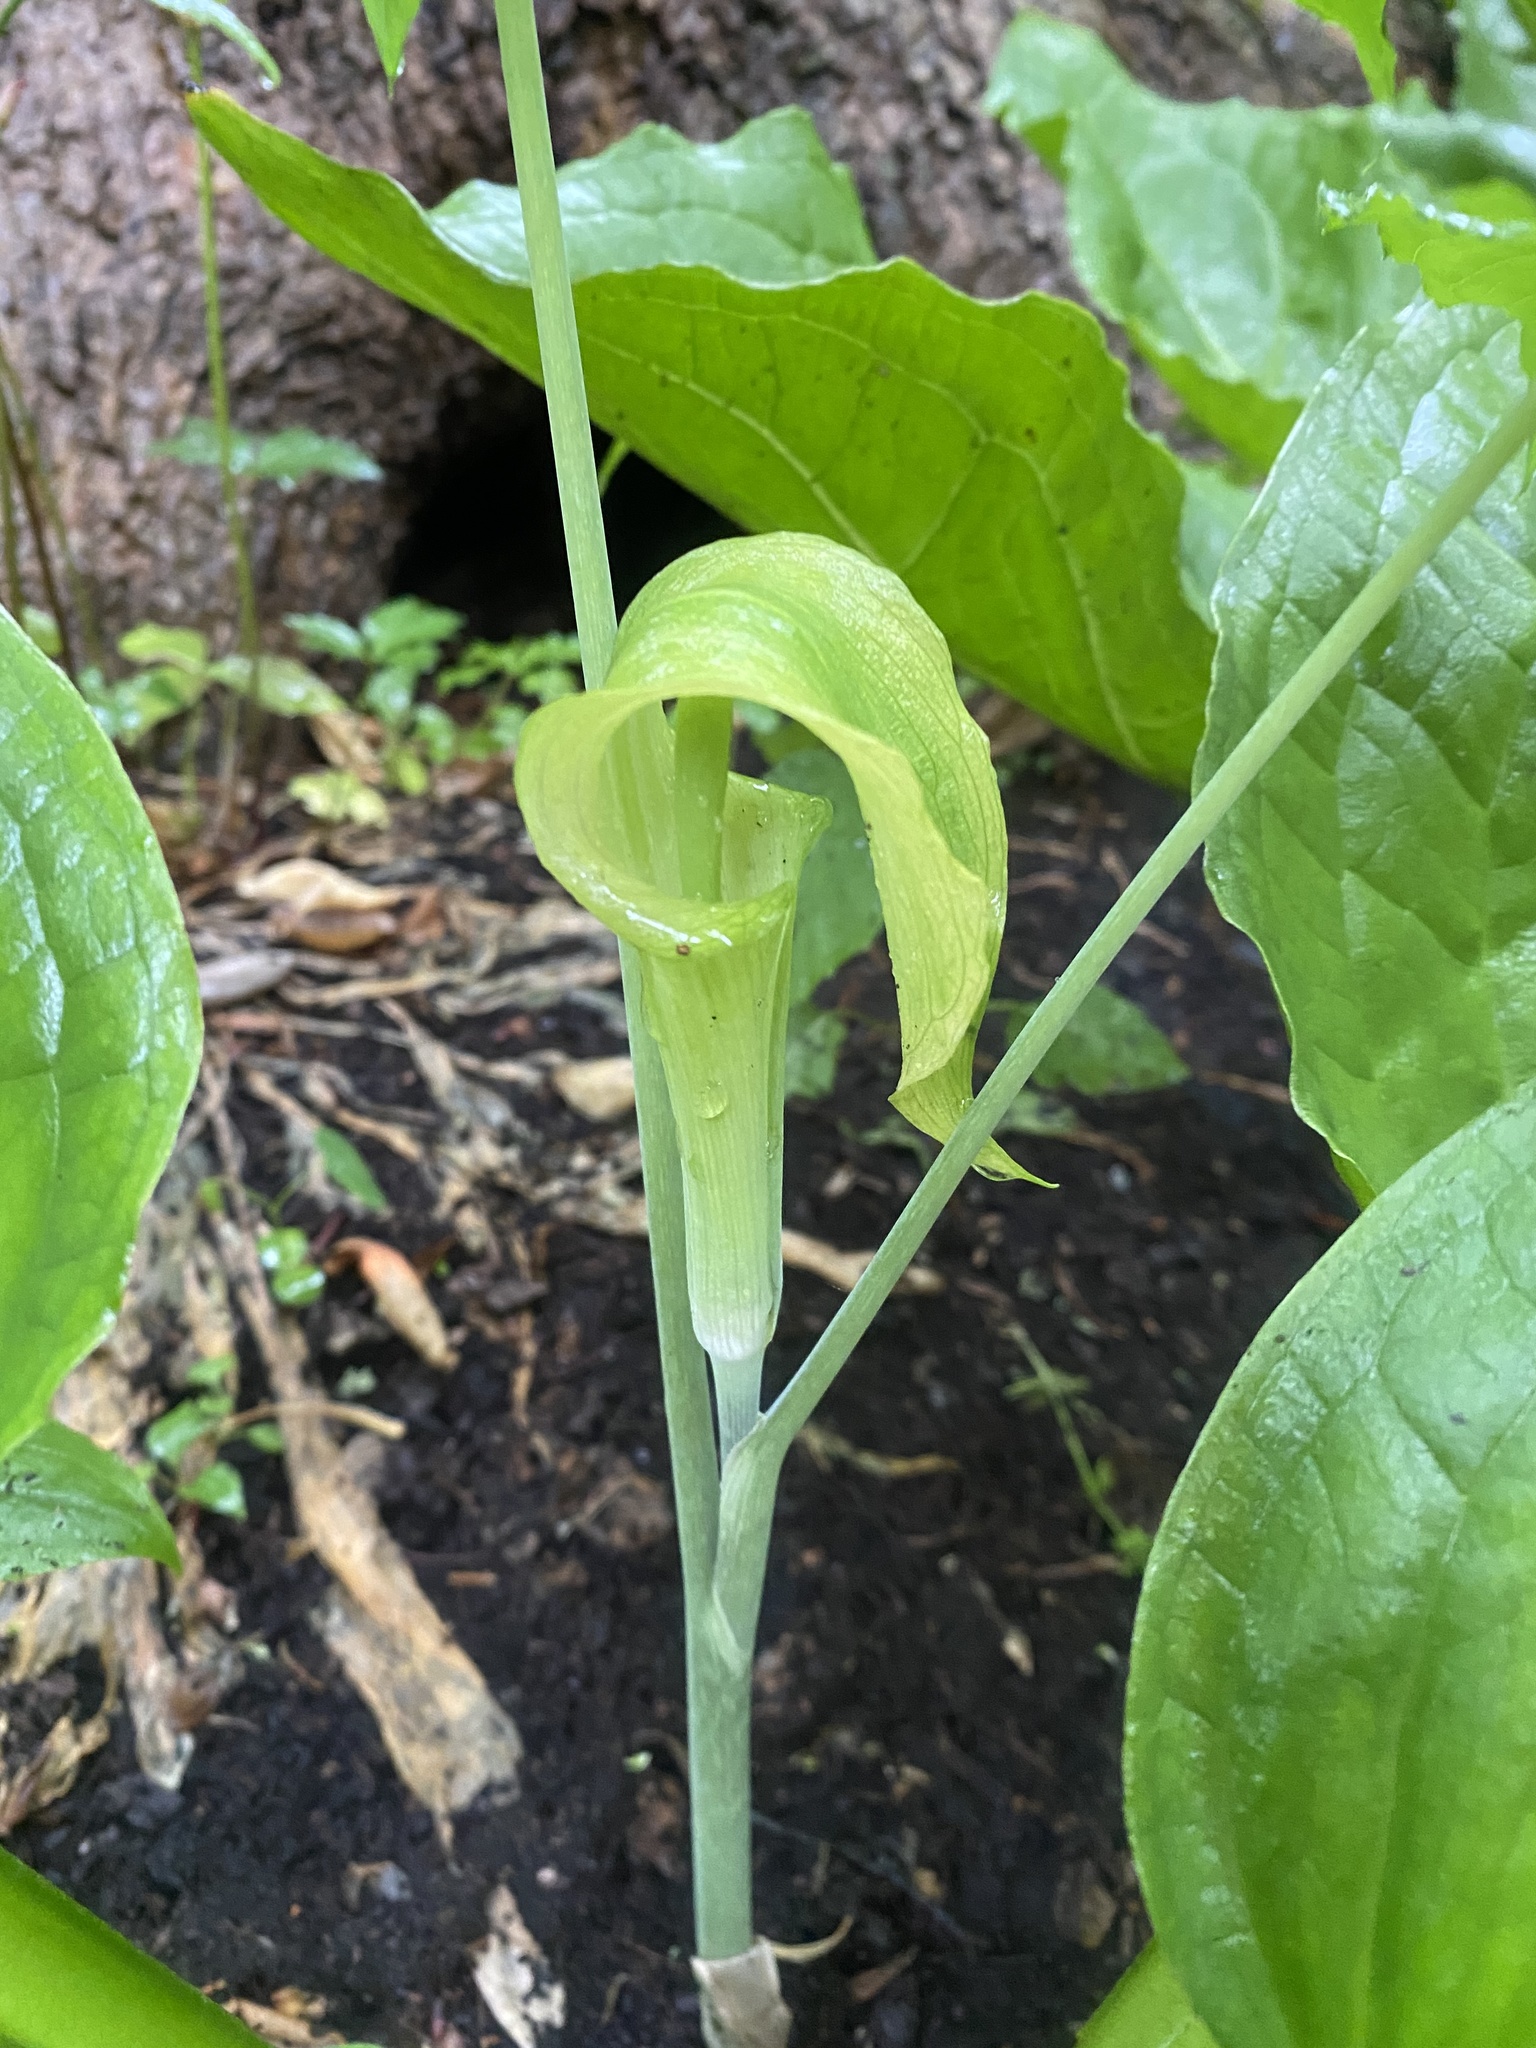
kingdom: Plantae
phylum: Tracheophyta
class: Liliopsida
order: Alismatales
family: Araceae
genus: Arisaema
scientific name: Arisaema triphyllum
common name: Jack-in-the-pulpit
